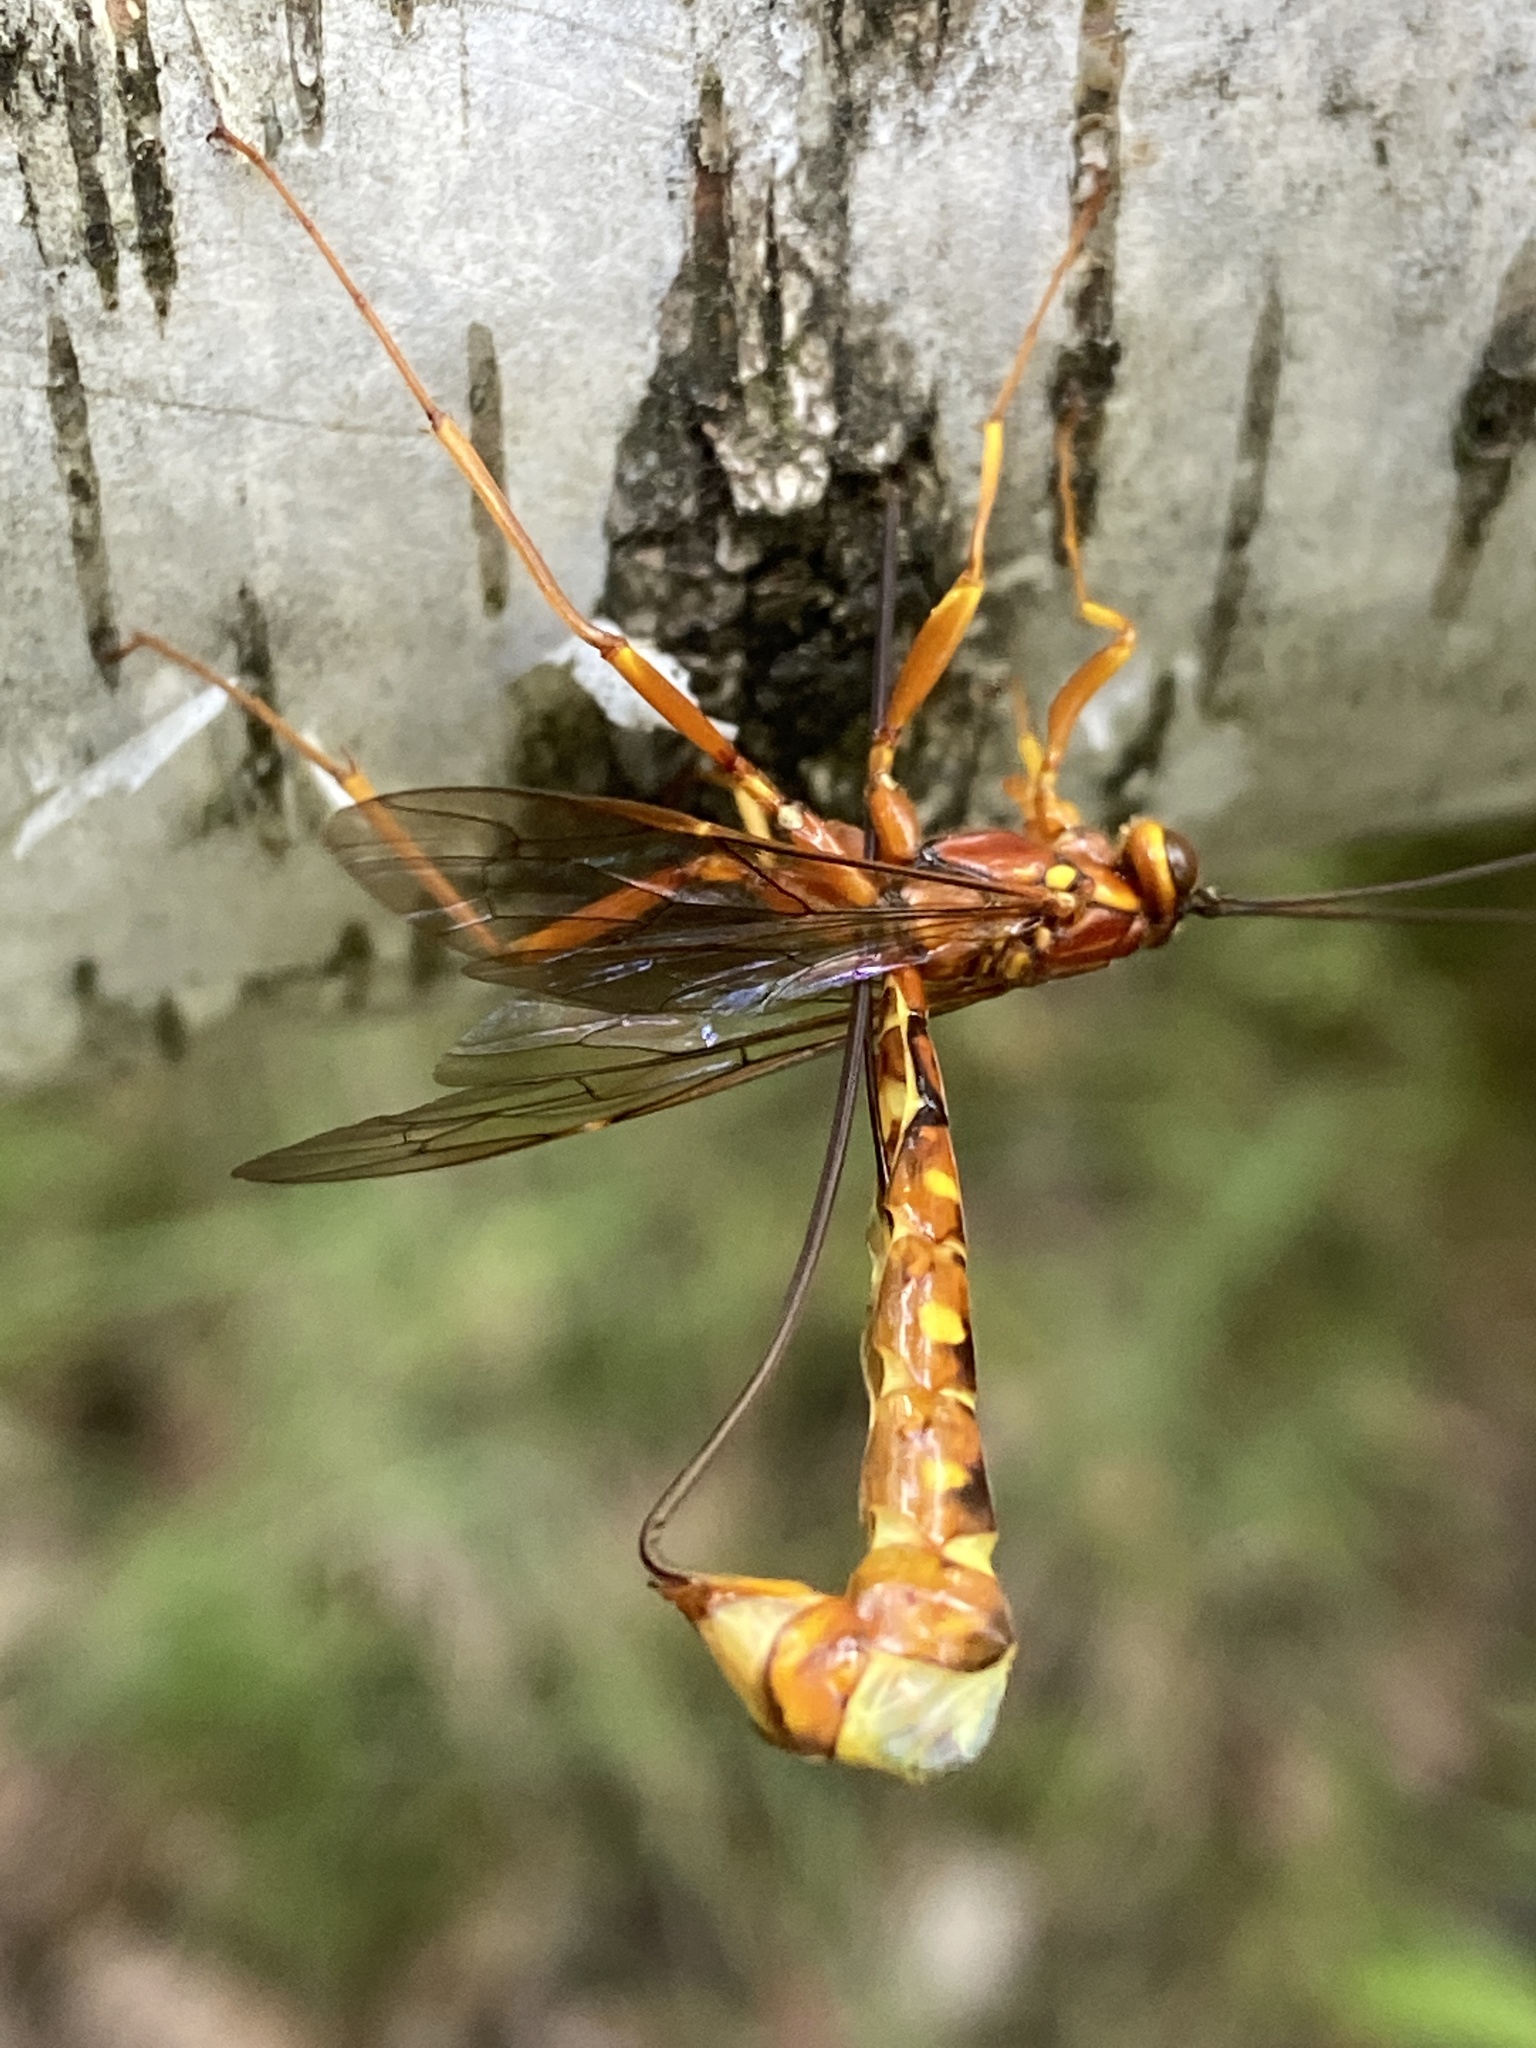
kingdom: Animalia
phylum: Arthropoda
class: Insecta
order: Hymenoptera
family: Ichneumonidae
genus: Megarhyssa
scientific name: Megarhyssa vagatoria
